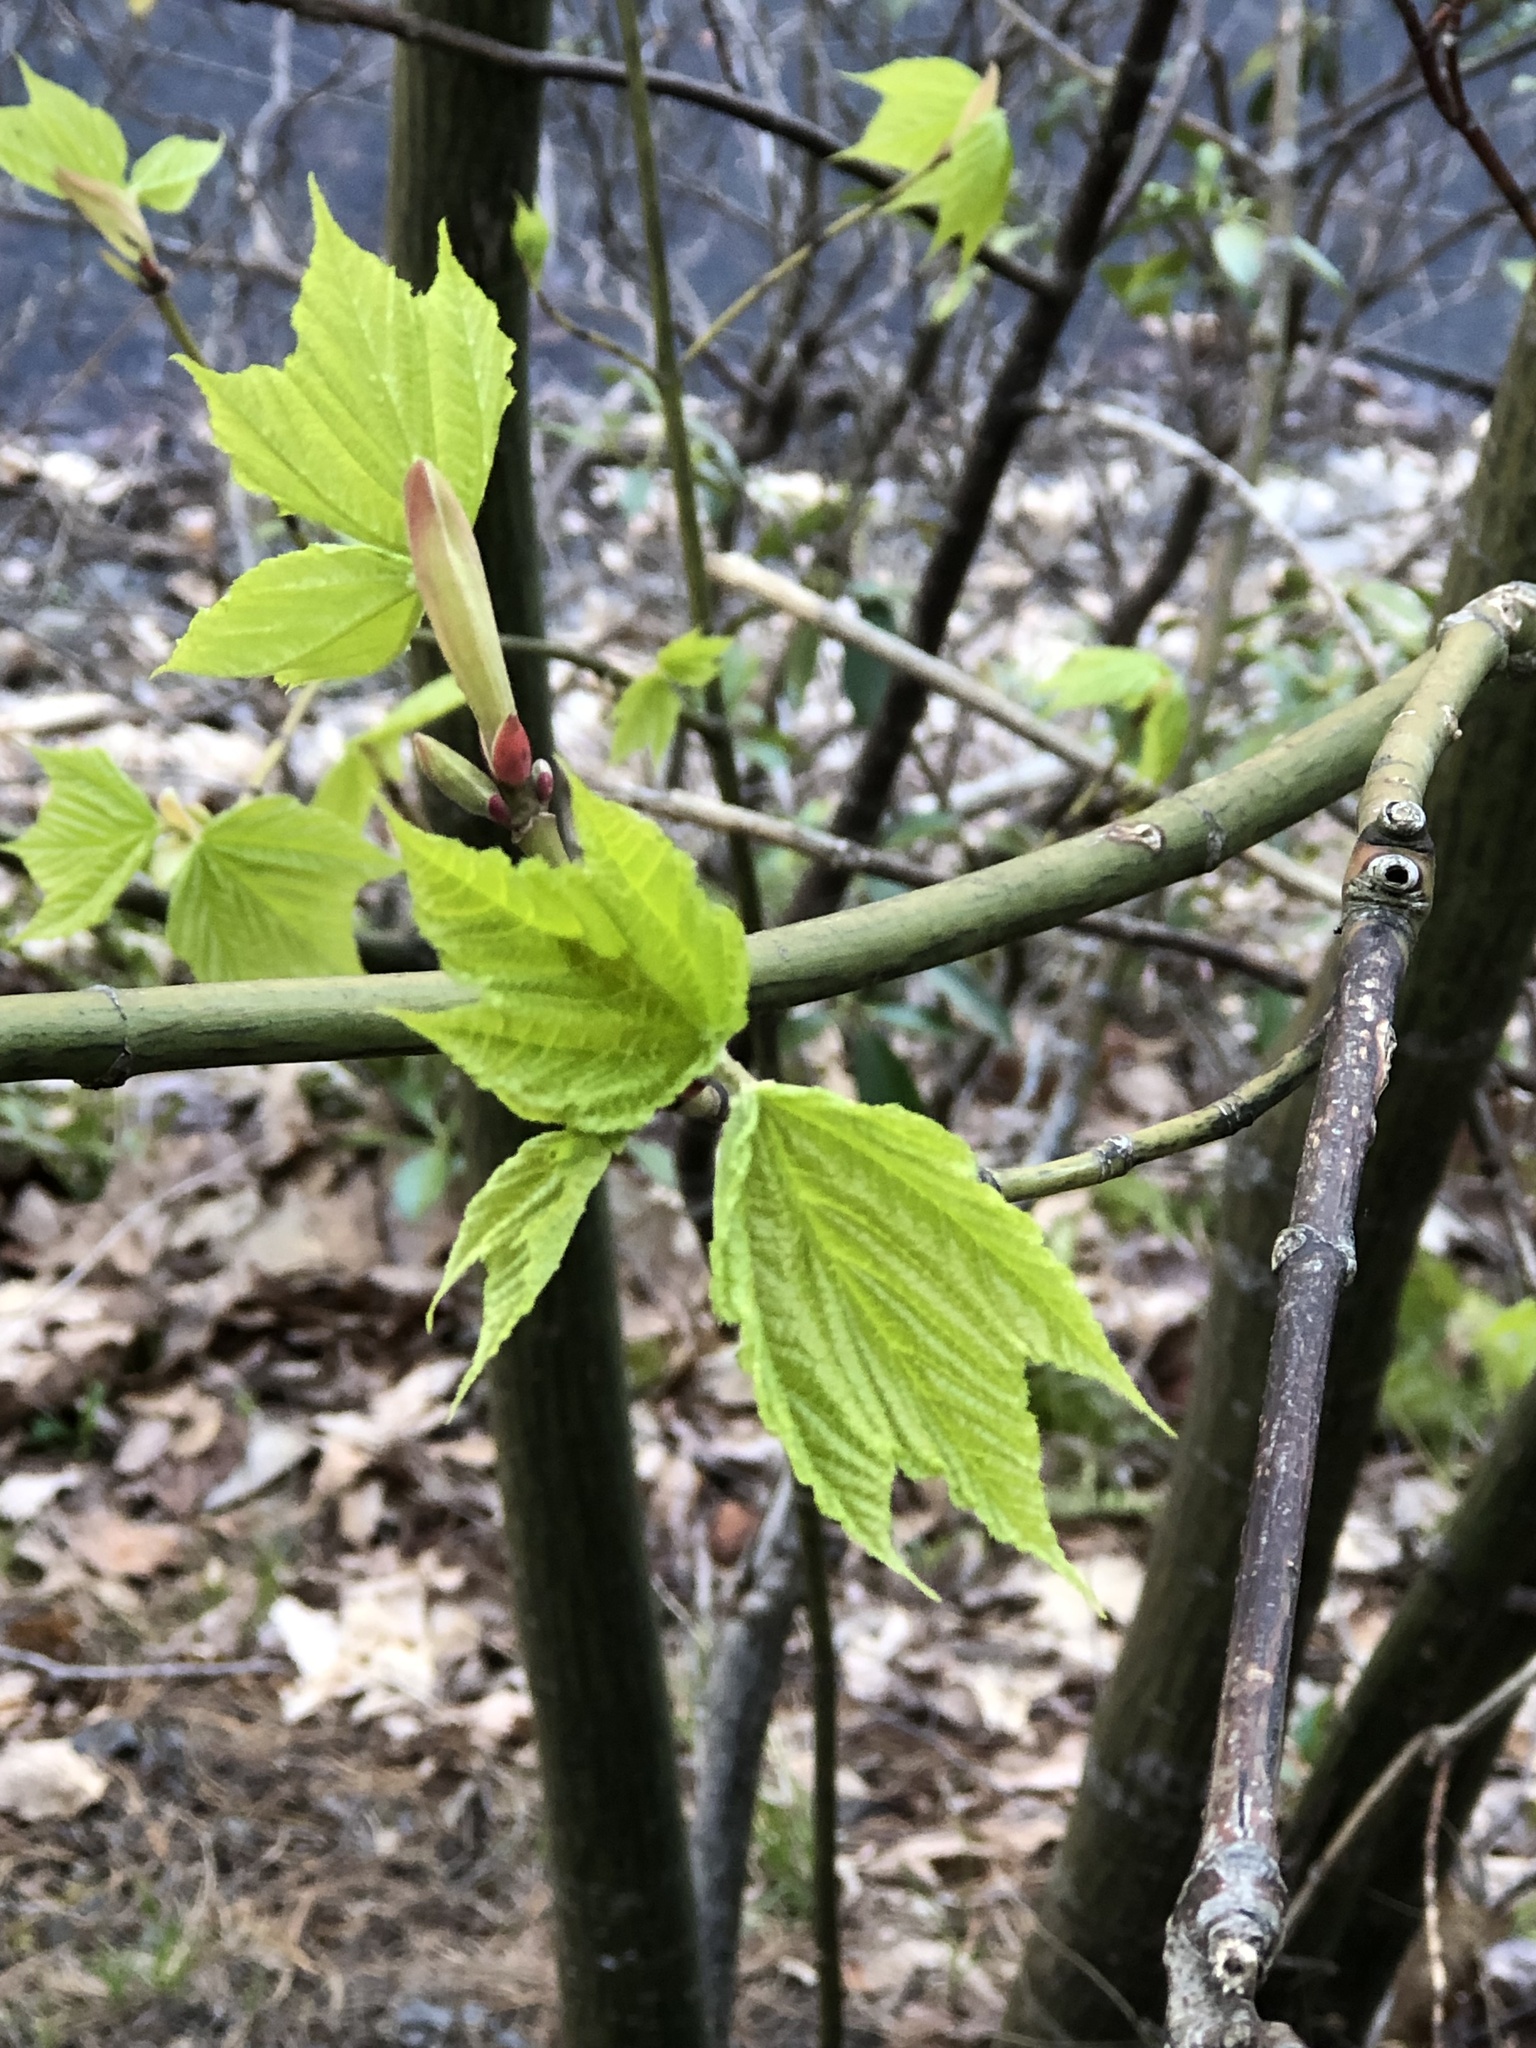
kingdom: Plantae
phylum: Tracheophyta
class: Magnoliopsida
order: Sapindales
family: Sapindaceae
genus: Acer
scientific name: Acer pensylvanicum
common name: Moosewood
